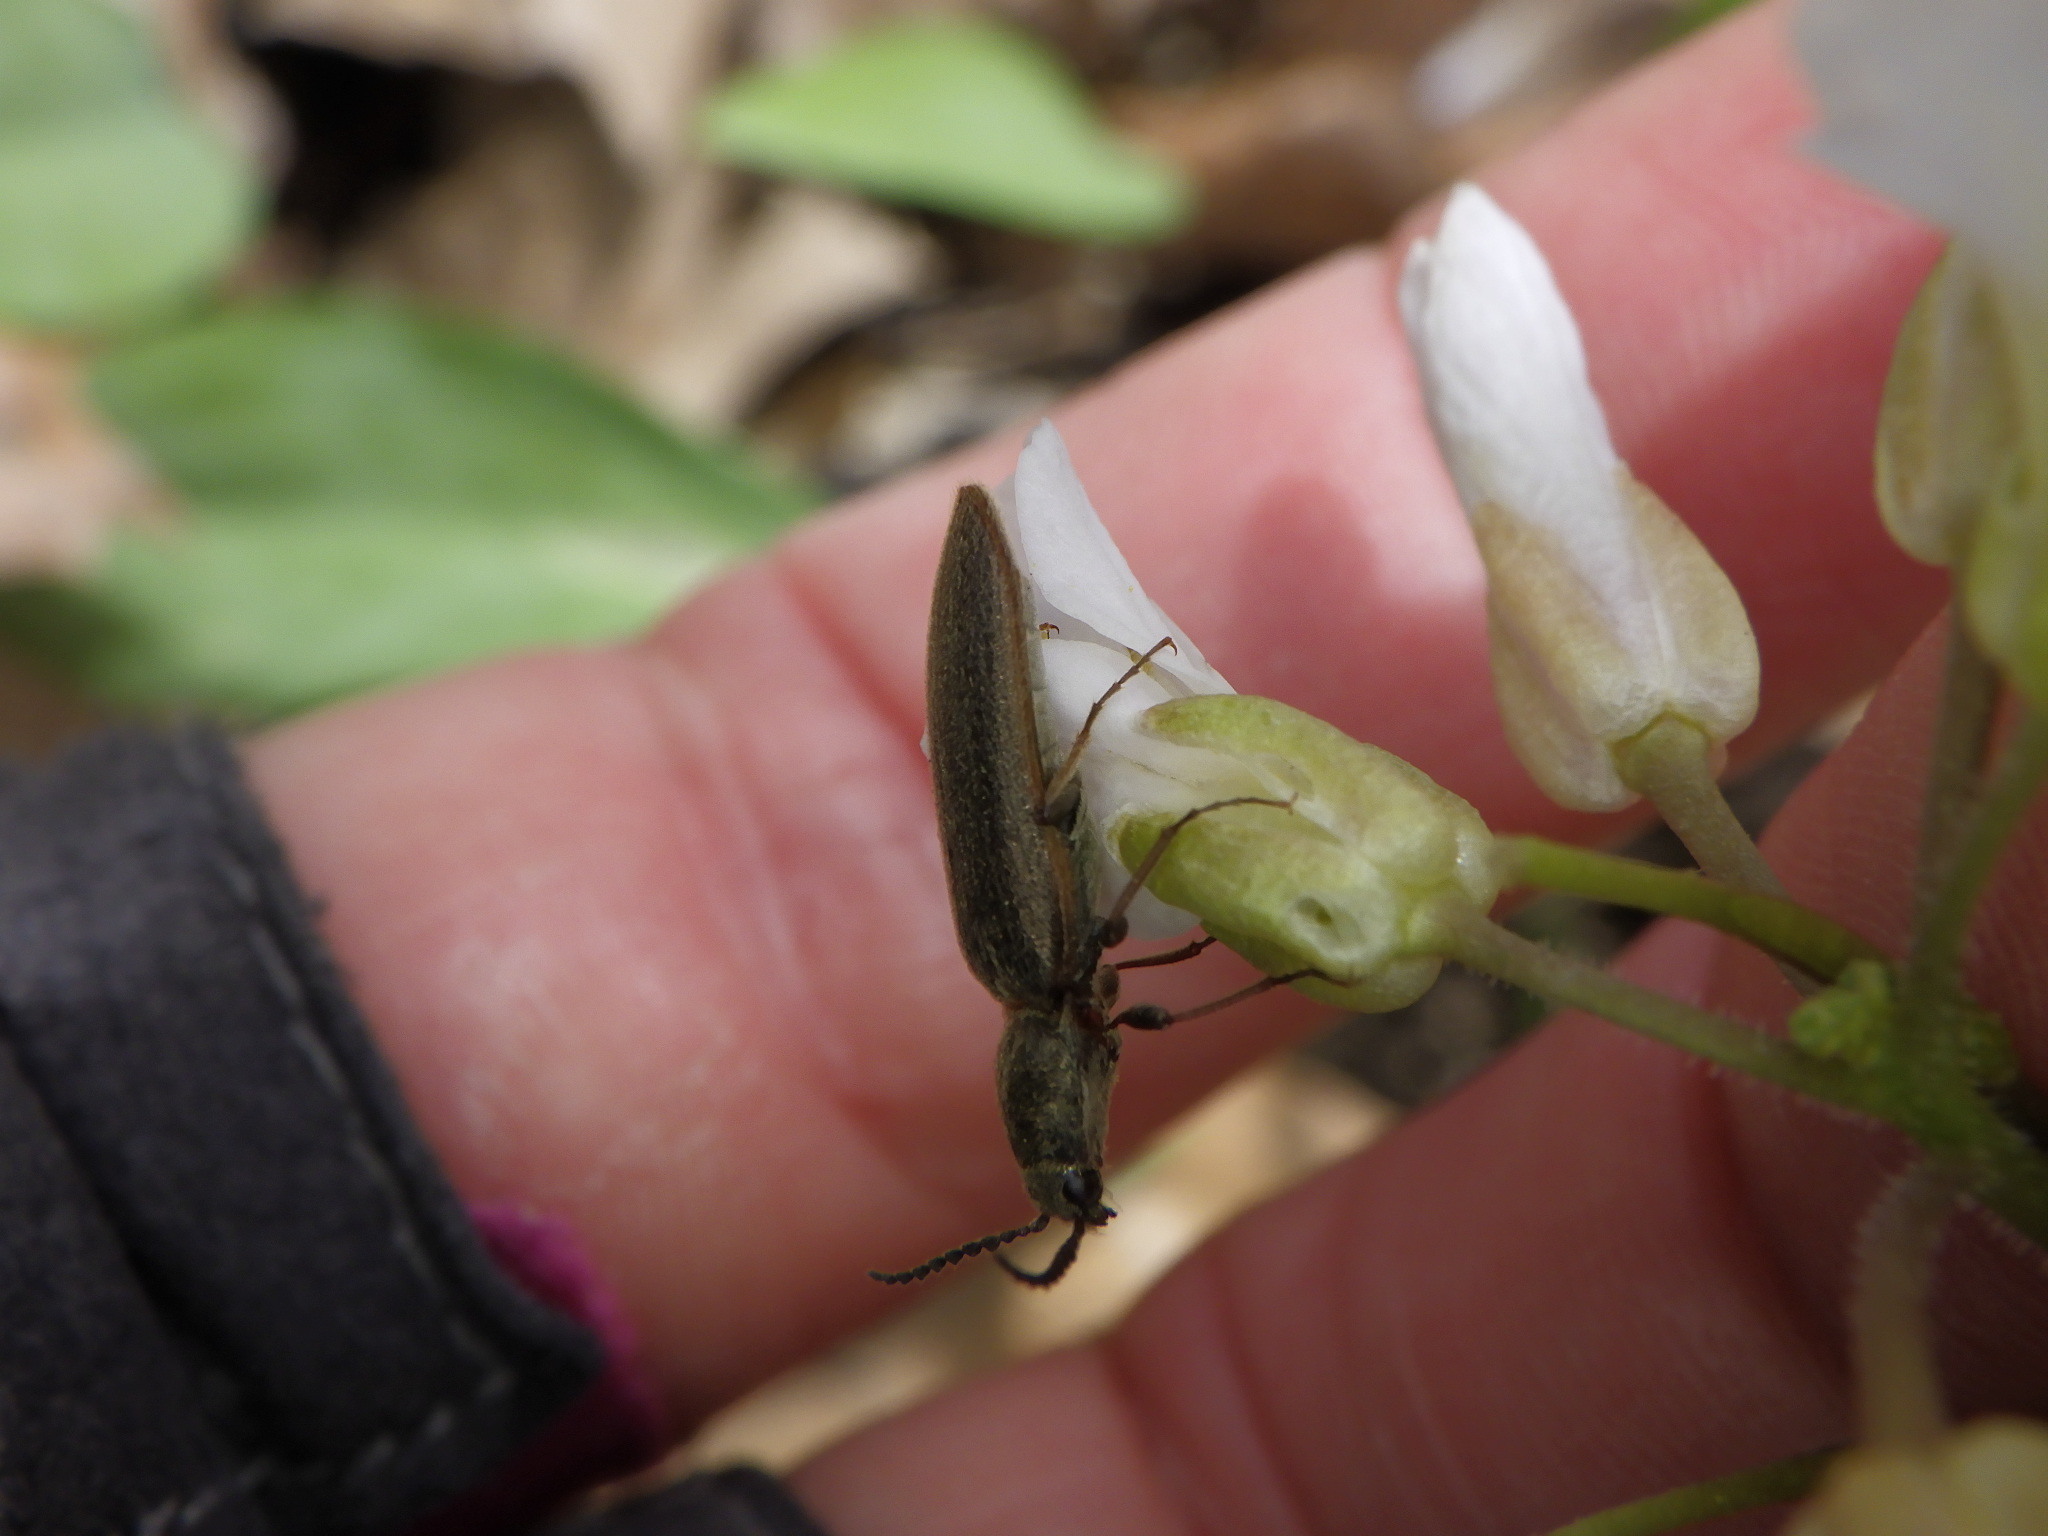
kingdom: Animalia
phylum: Arthropoda
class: Insecta
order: Coleoptera
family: Elateridae
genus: Sylvanelater
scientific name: Sylvanelater cylindriformis
